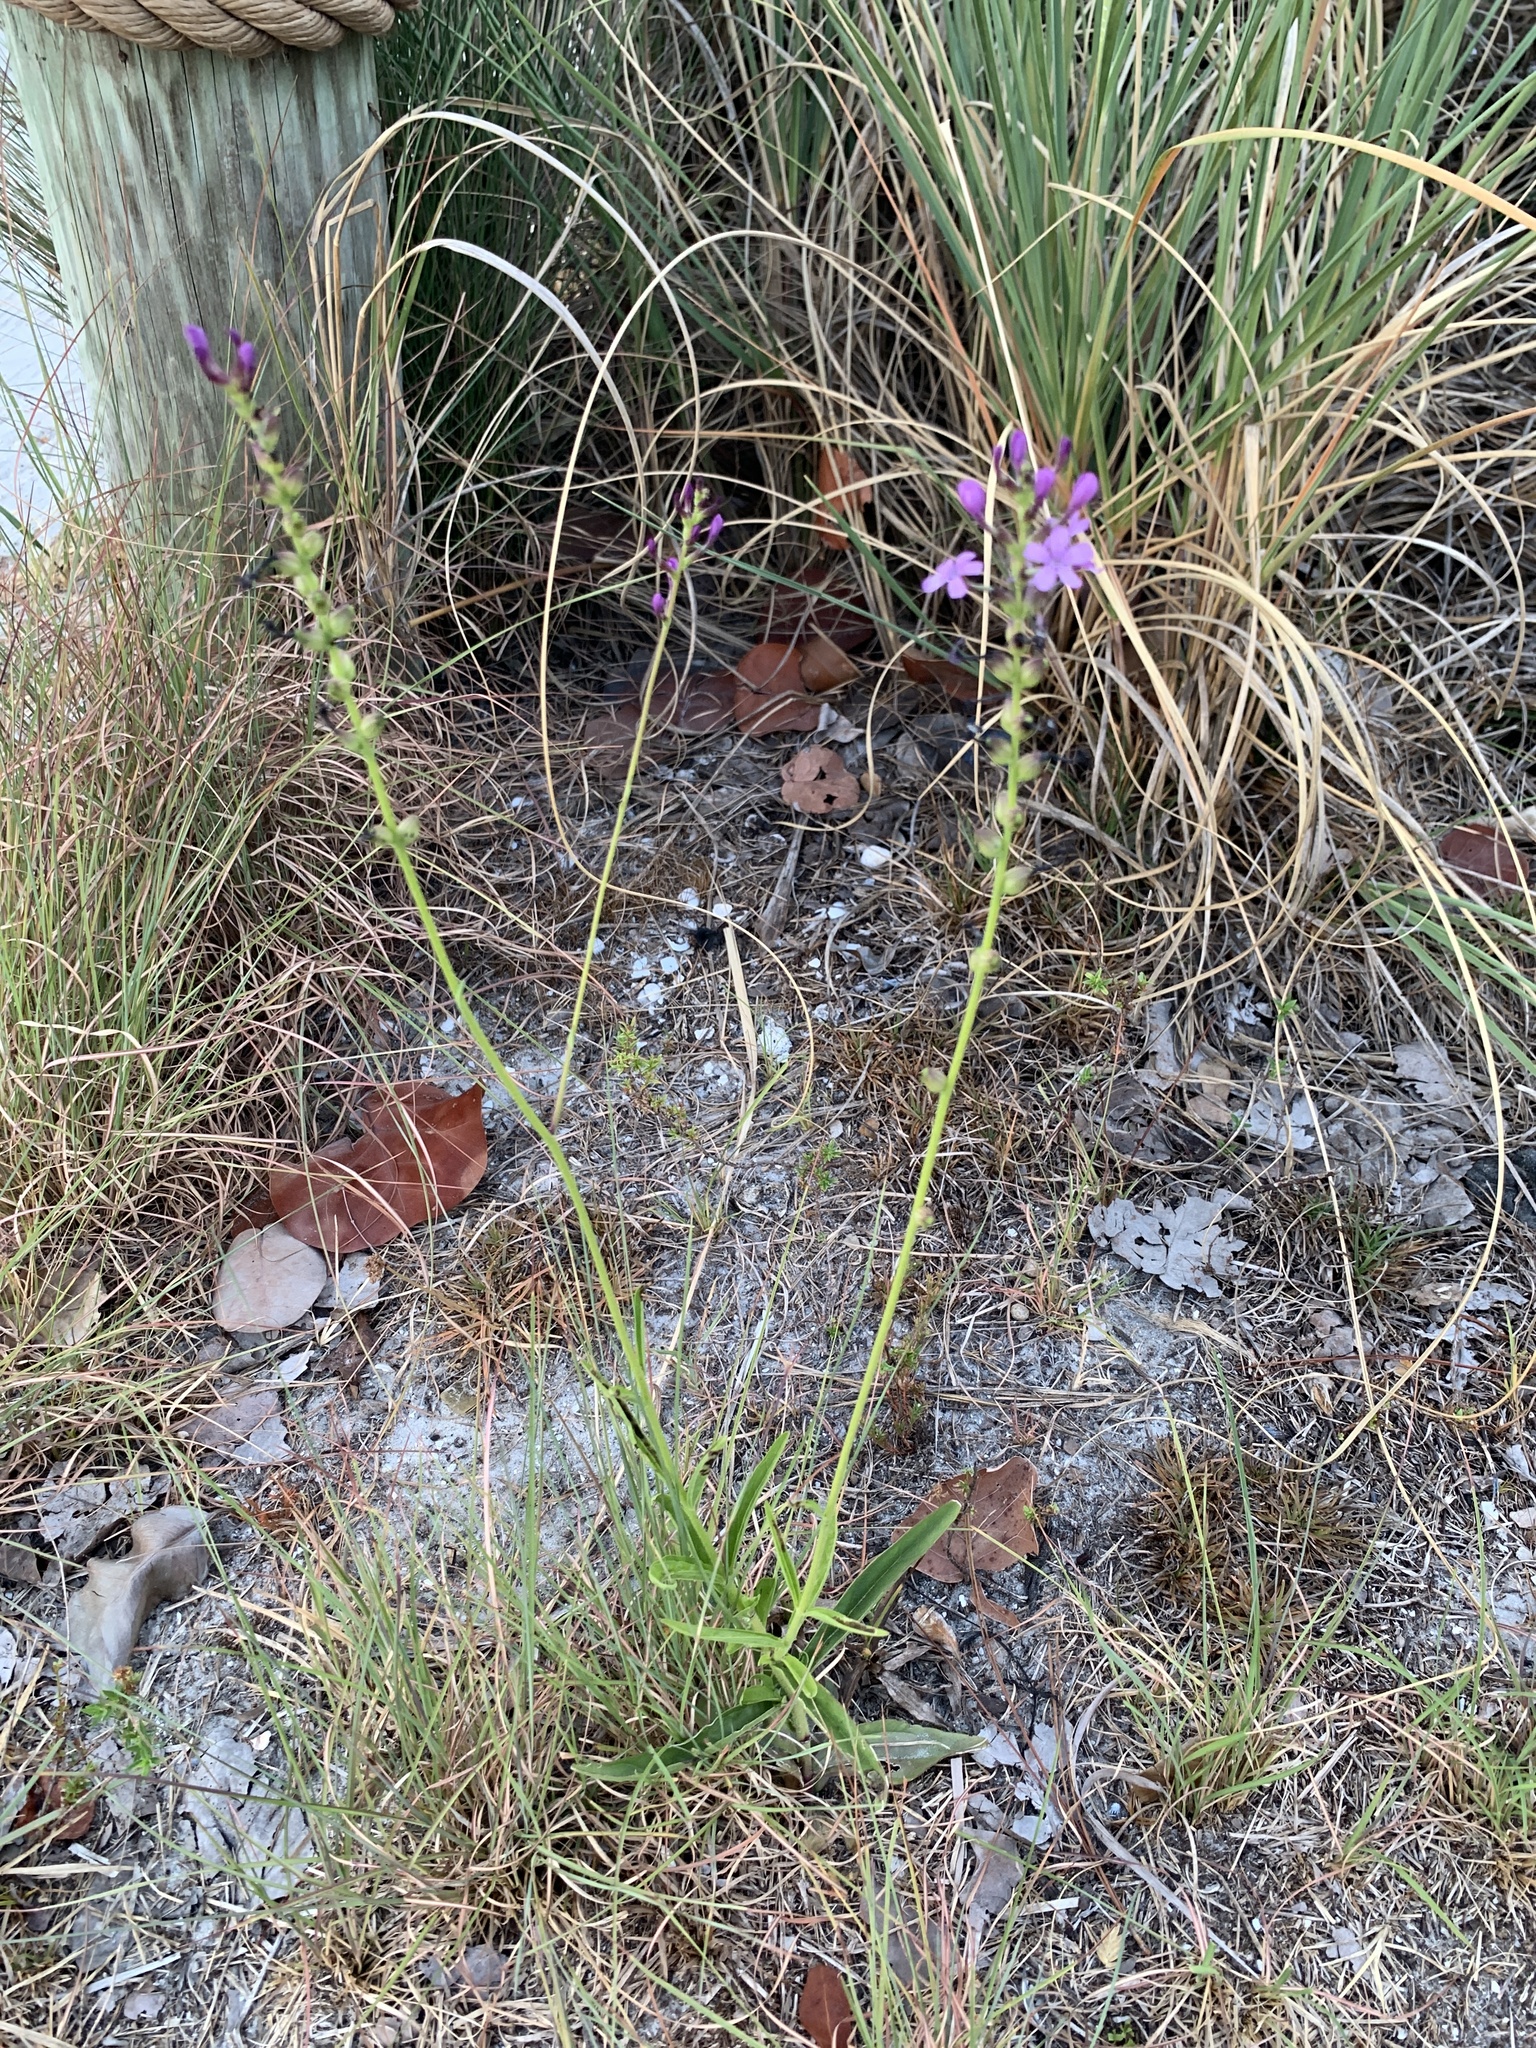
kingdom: Plantae
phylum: Tracheophyta
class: Magnoliopsida
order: Lamiales
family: Orobanchaceae
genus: Buchnera
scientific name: Buchnera floridana
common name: Florida bluehearts
